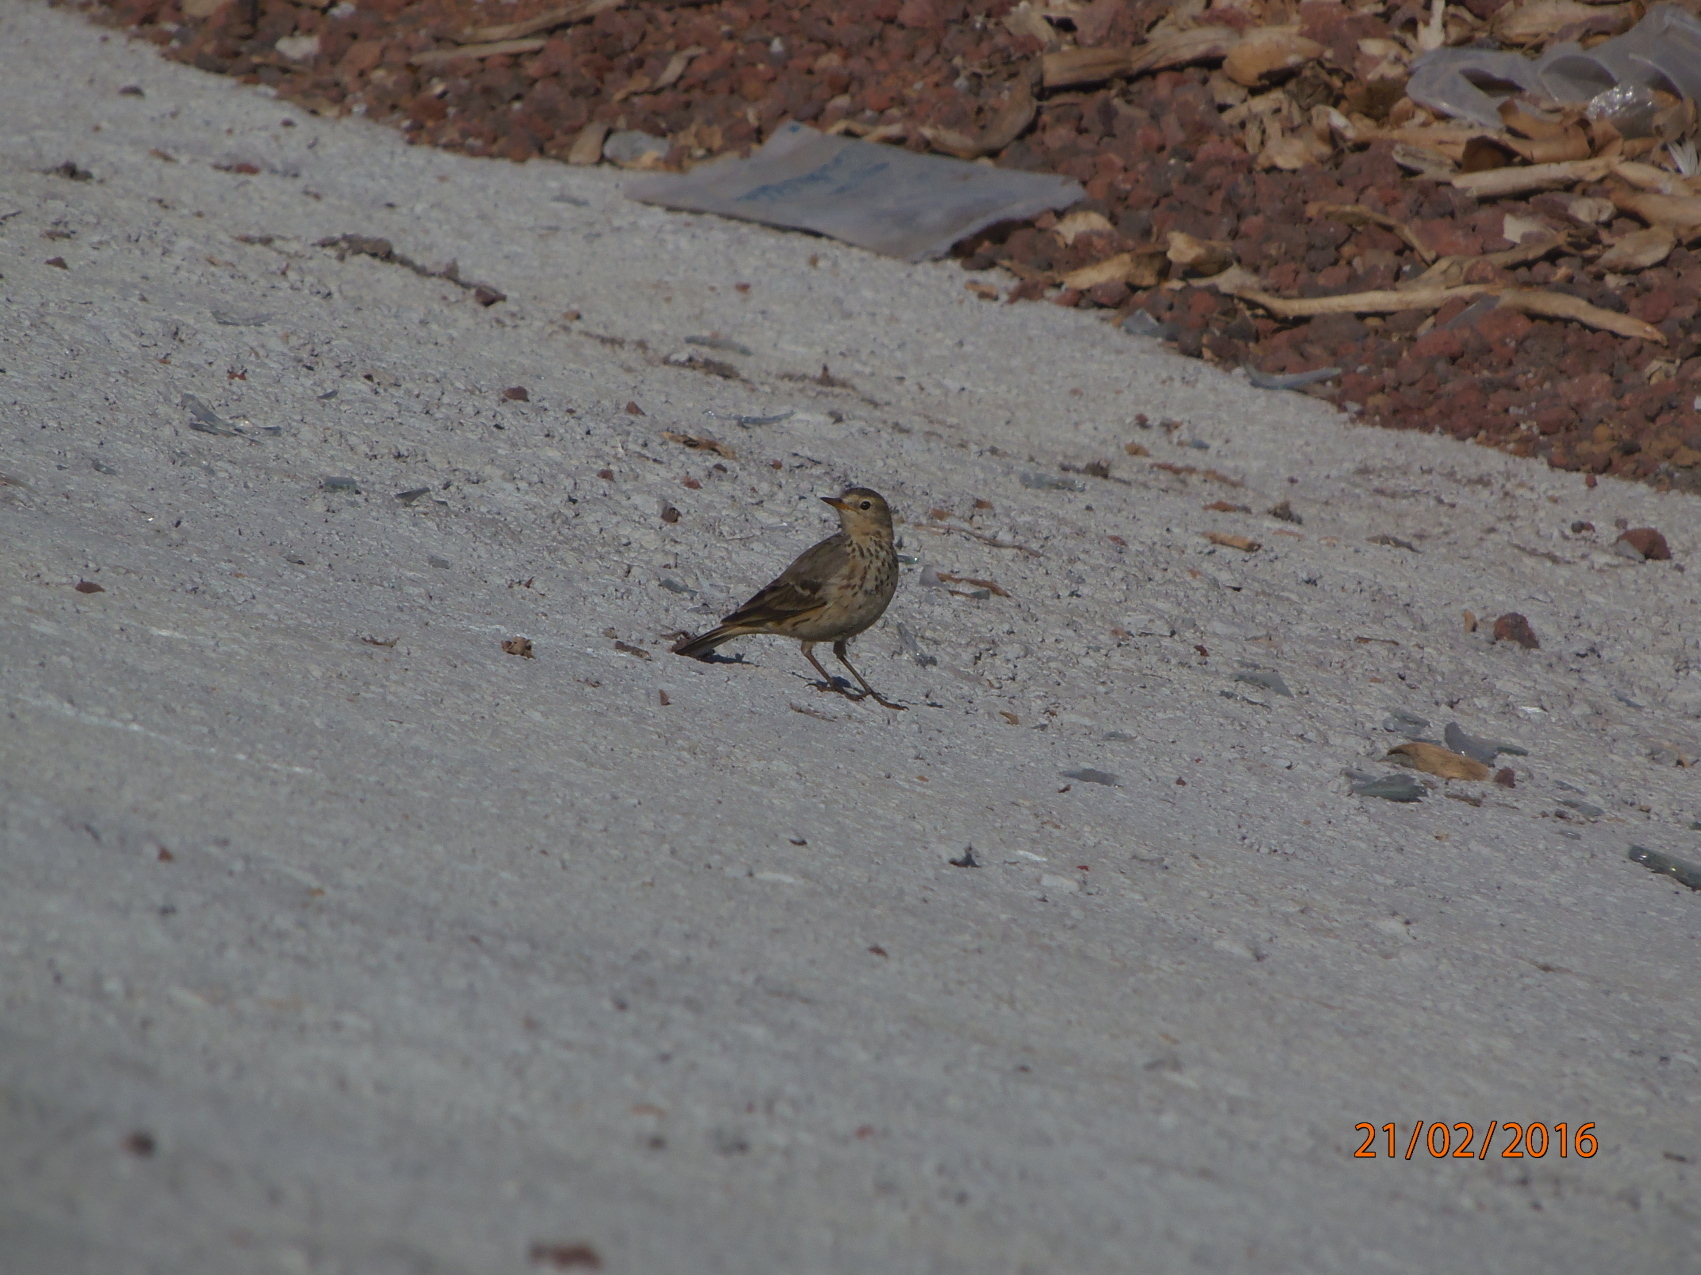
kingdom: Animalia
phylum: Chordata
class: Aves
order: Passeriformes
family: Motacillidae
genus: Anthus
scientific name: Anthus rubescens
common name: Buff-bellied pipit
